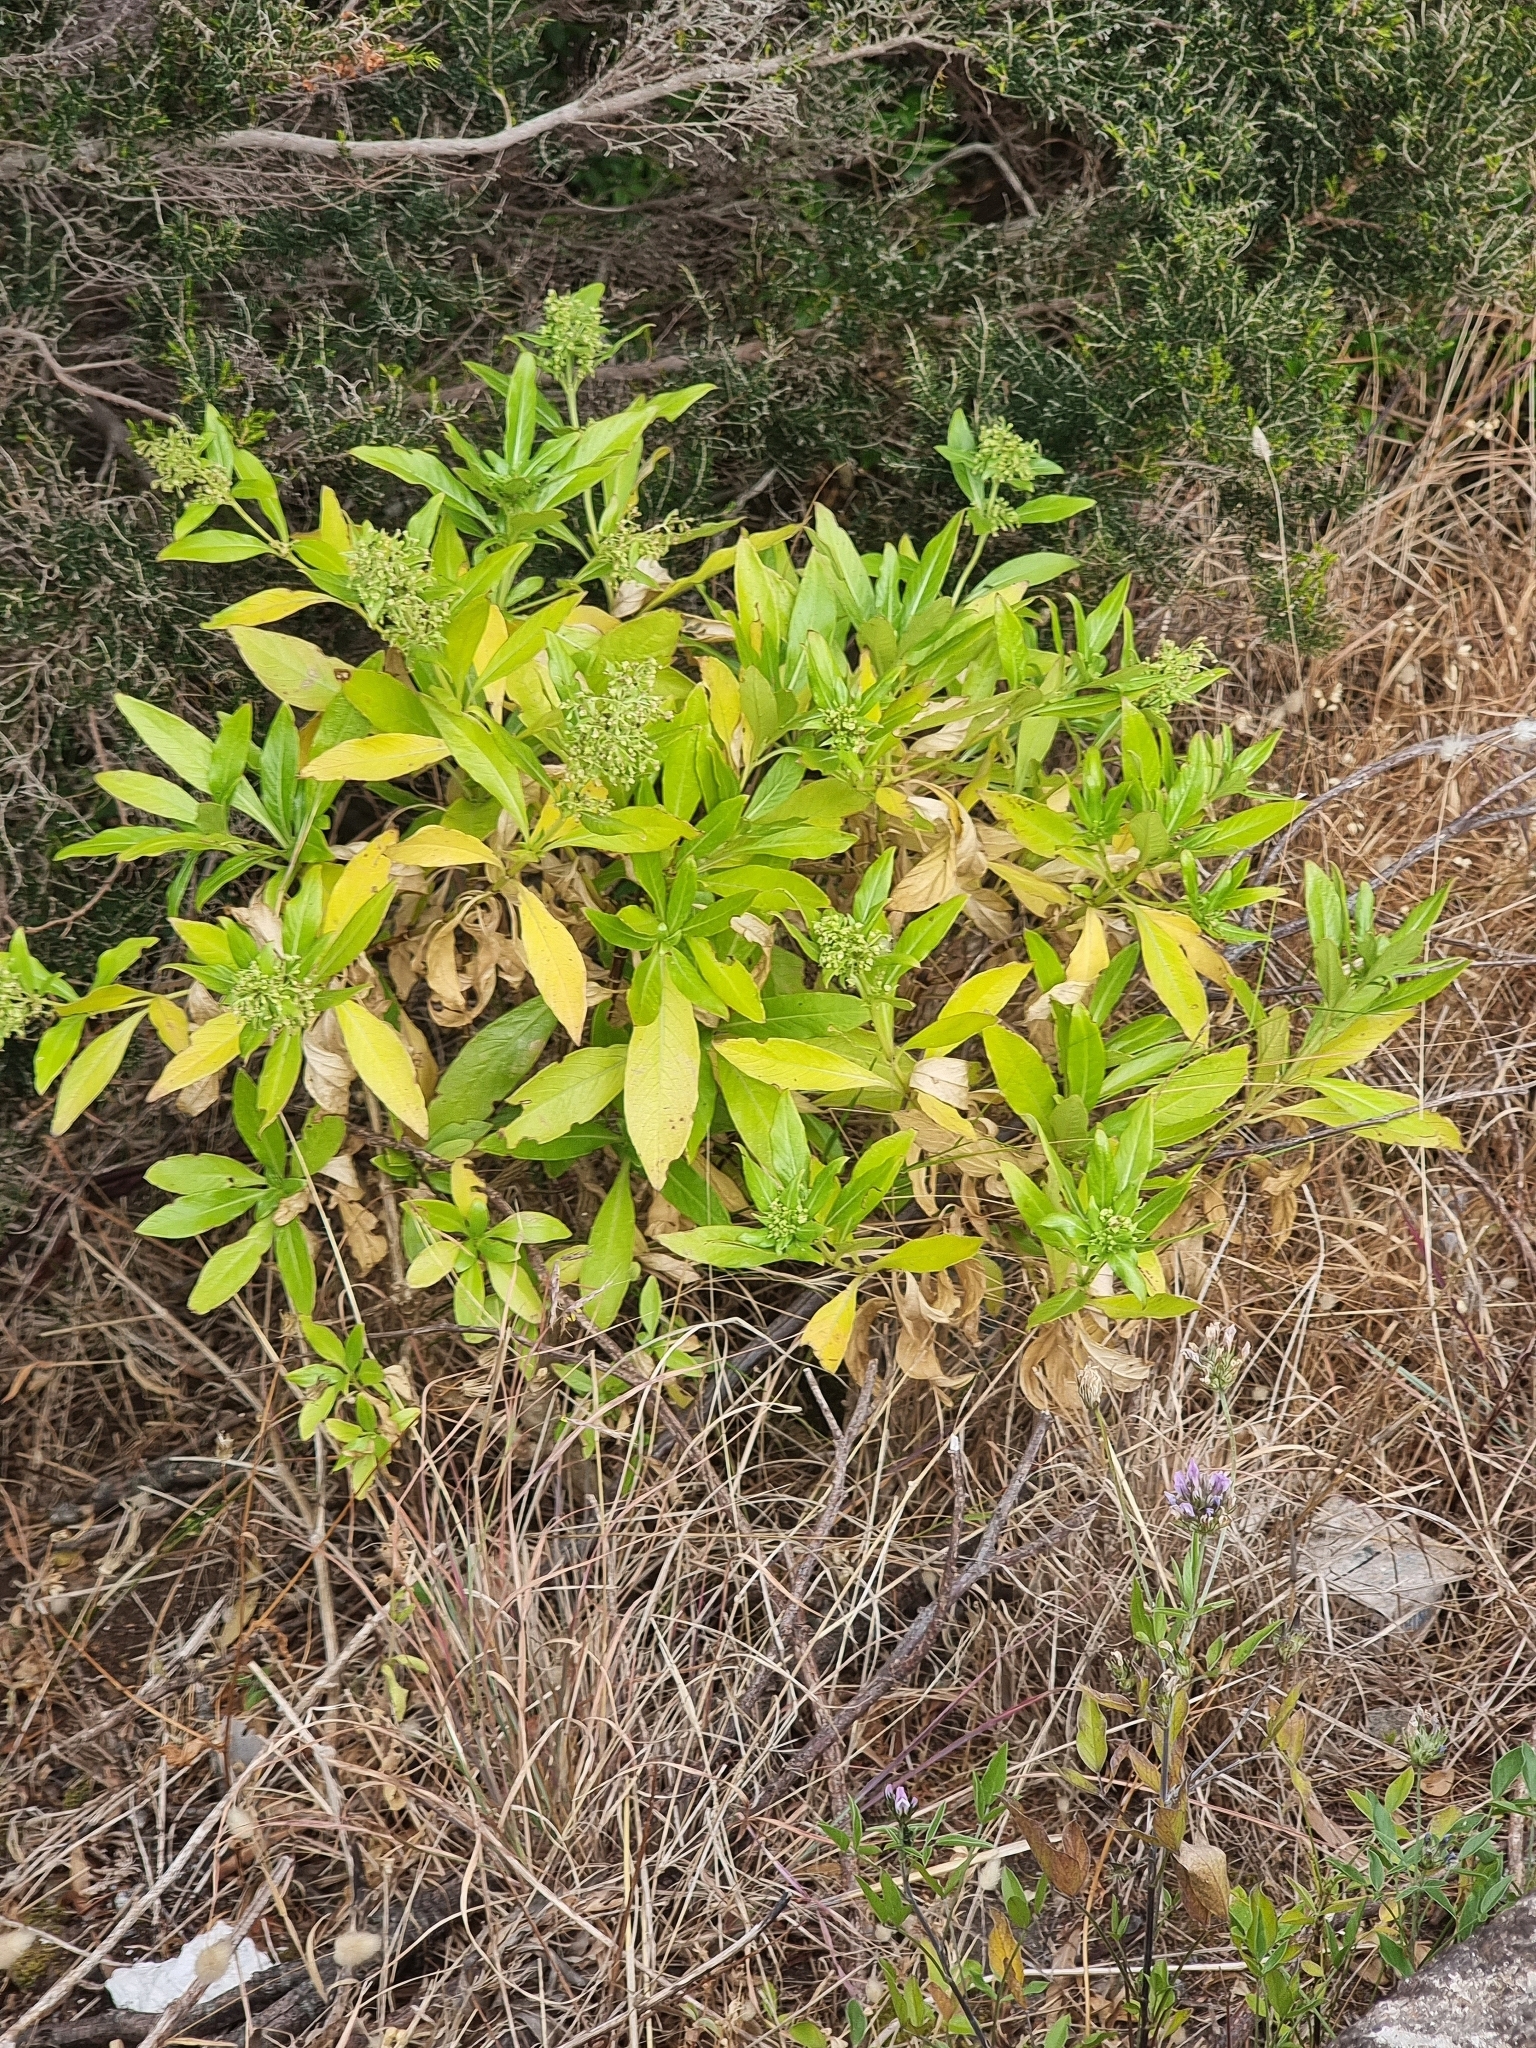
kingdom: Plantae
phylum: Tracheophyta
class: Magnoliopsida
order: Gentianales
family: Rubiaceae
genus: Phyllis
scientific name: Phyllis nobla
